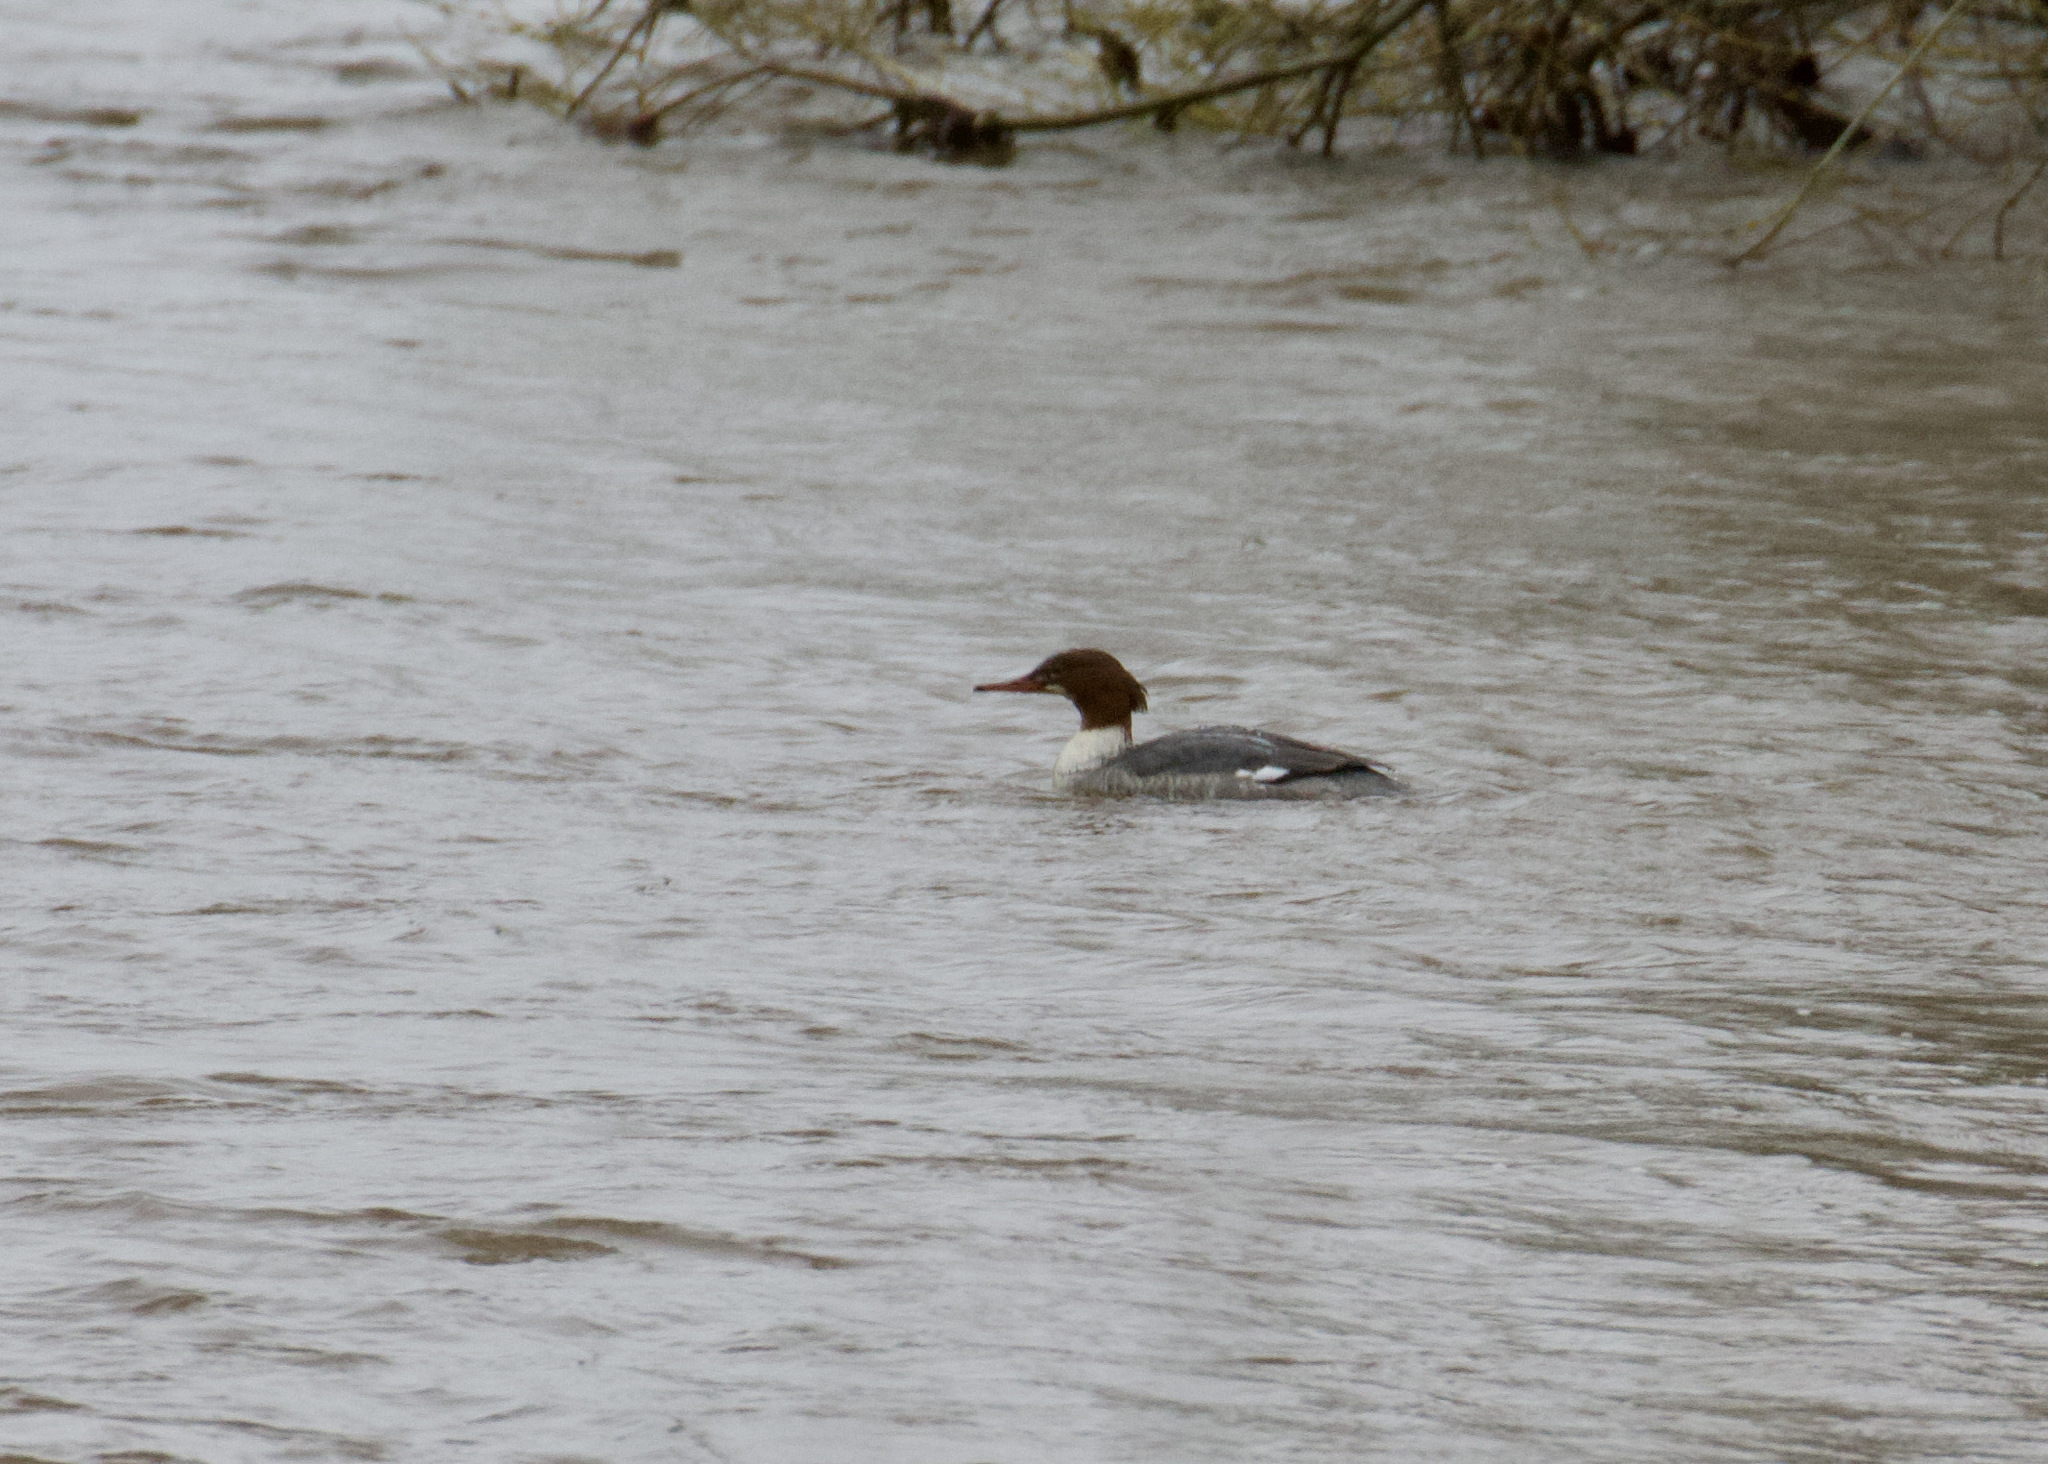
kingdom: Animalia
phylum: Chordata
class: Aves
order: Anseriformes
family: Anatidae
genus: Mergus
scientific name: Mergus merganser
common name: Common merganser
